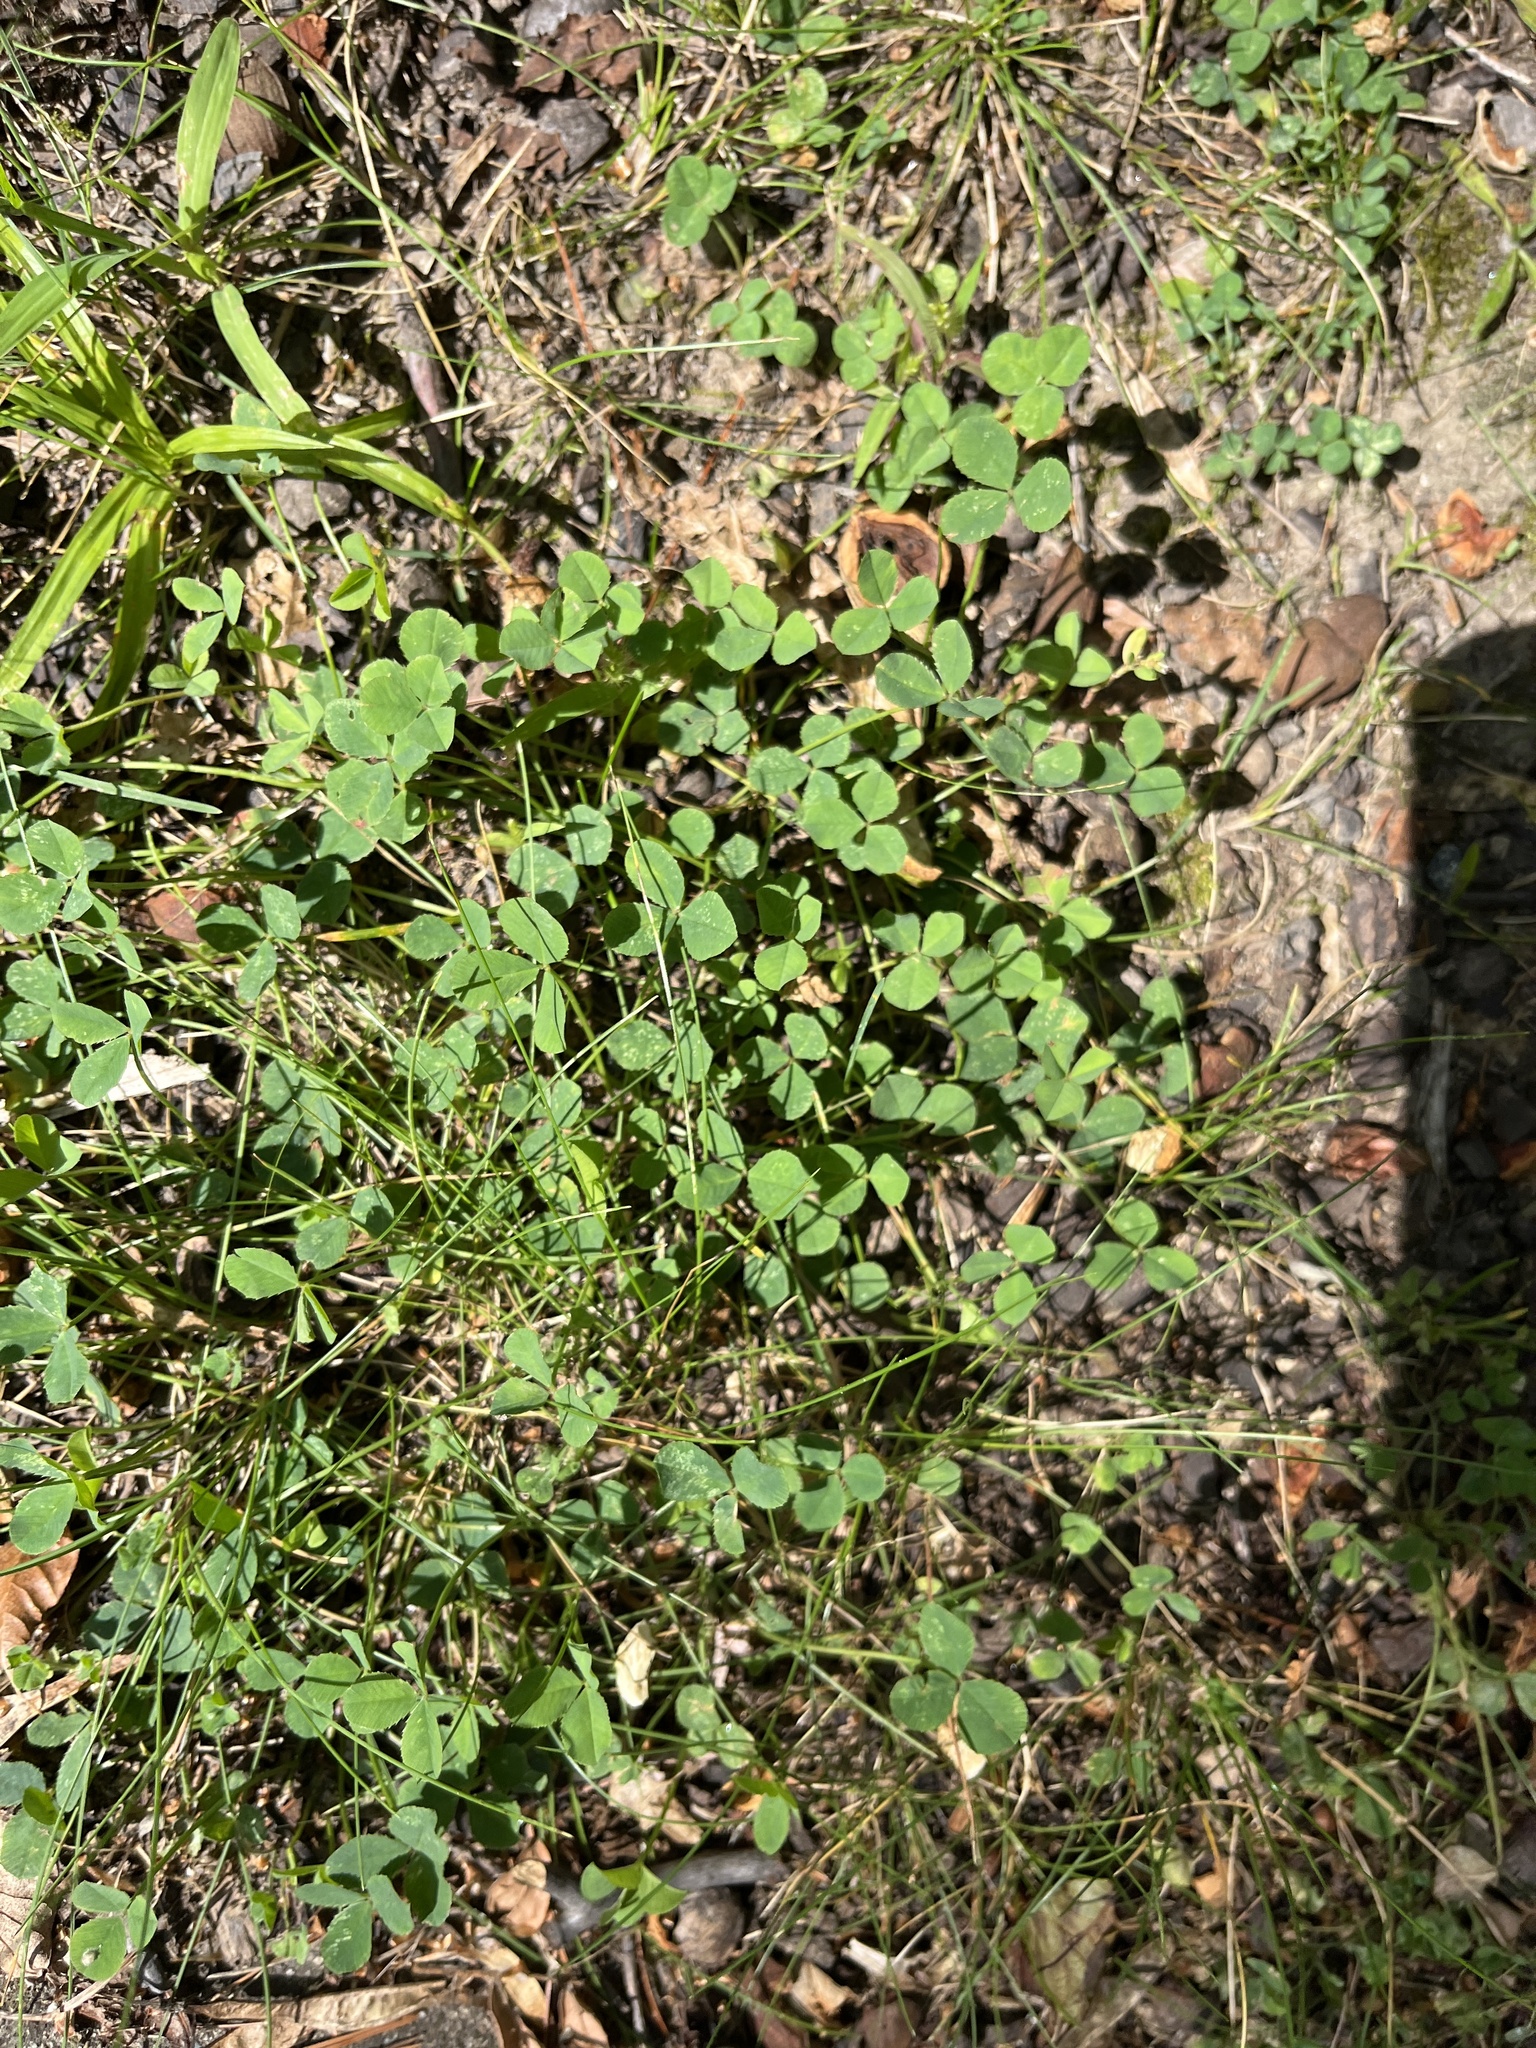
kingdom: Plantae
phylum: Tracheophyta
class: Magnoliopsida
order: Fabales
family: Fabaceae
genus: Trifolium
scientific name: Trifolium repens
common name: White clover
